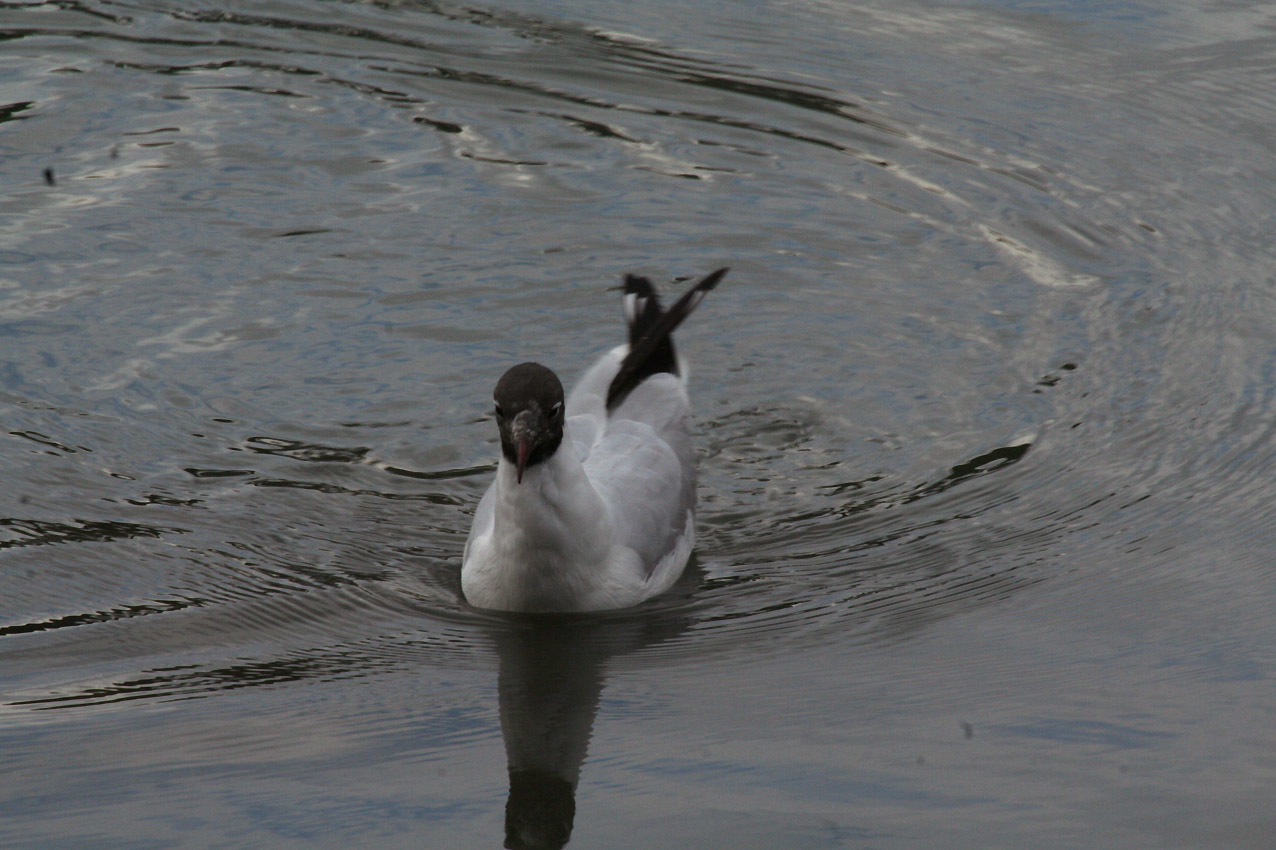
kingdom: Animalia
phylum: Chordata
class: Aves
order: Charadriiformes
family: Laridae
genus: Chroicocephalus
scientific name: Chroicocephalus ridibundus
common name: Black-headed gull
